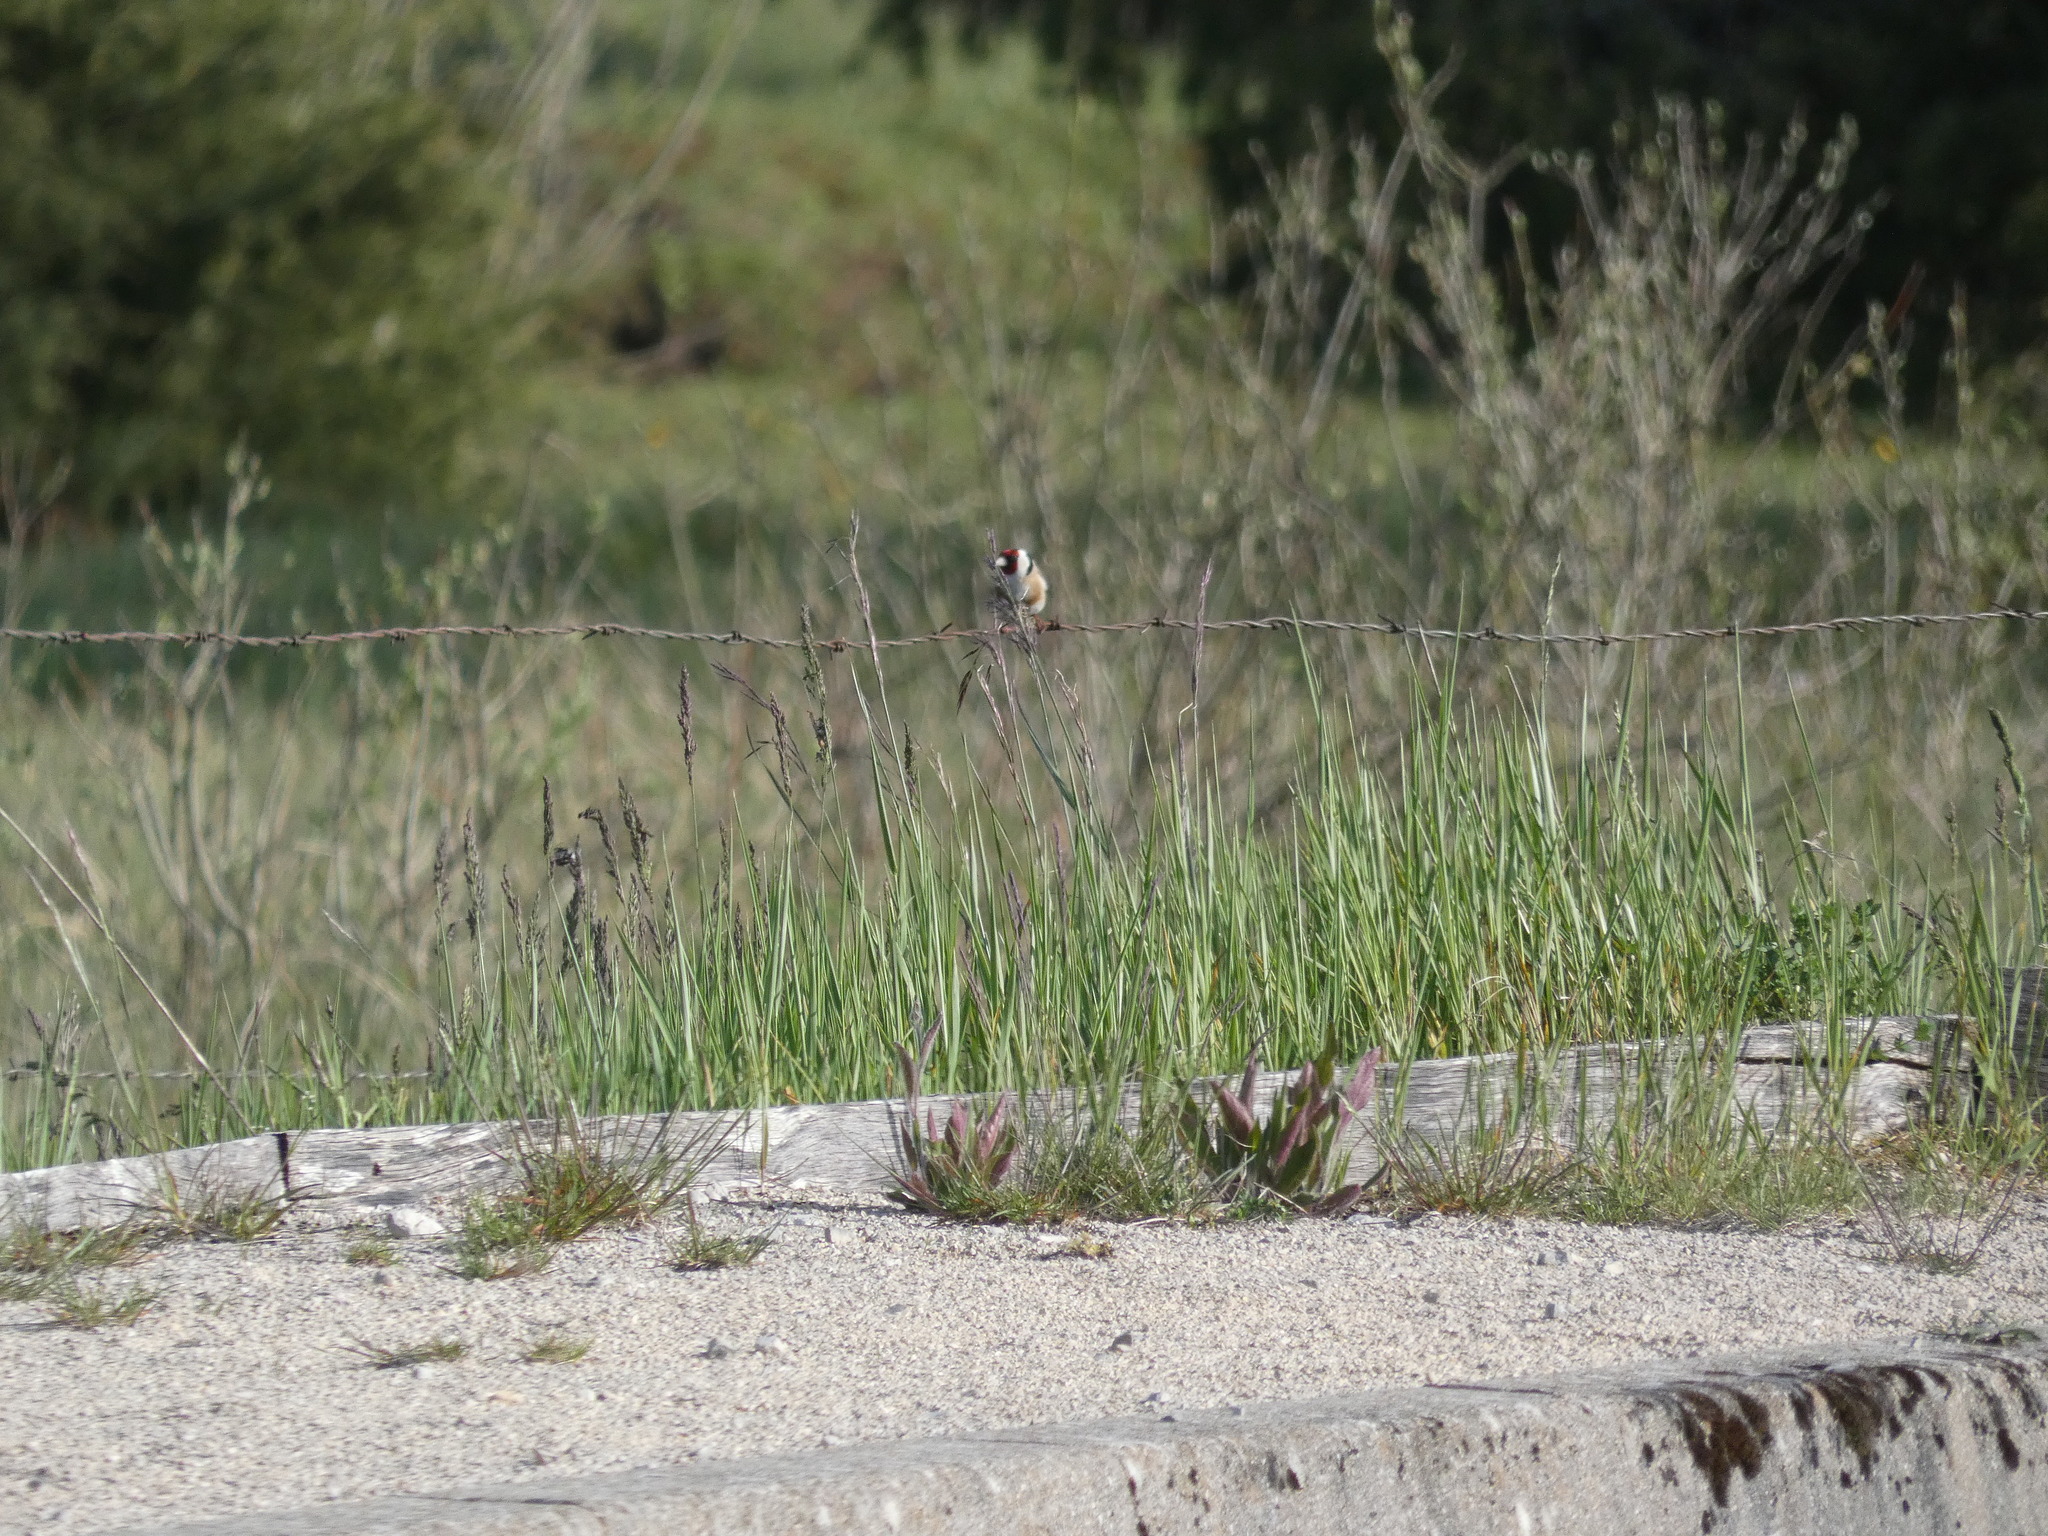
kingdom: Animalia
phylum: Chordata
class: Aves
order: Passeriformes
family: Fringillidae
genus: Carduelis
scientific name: Carduelis carduelis
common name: European goldfinch
